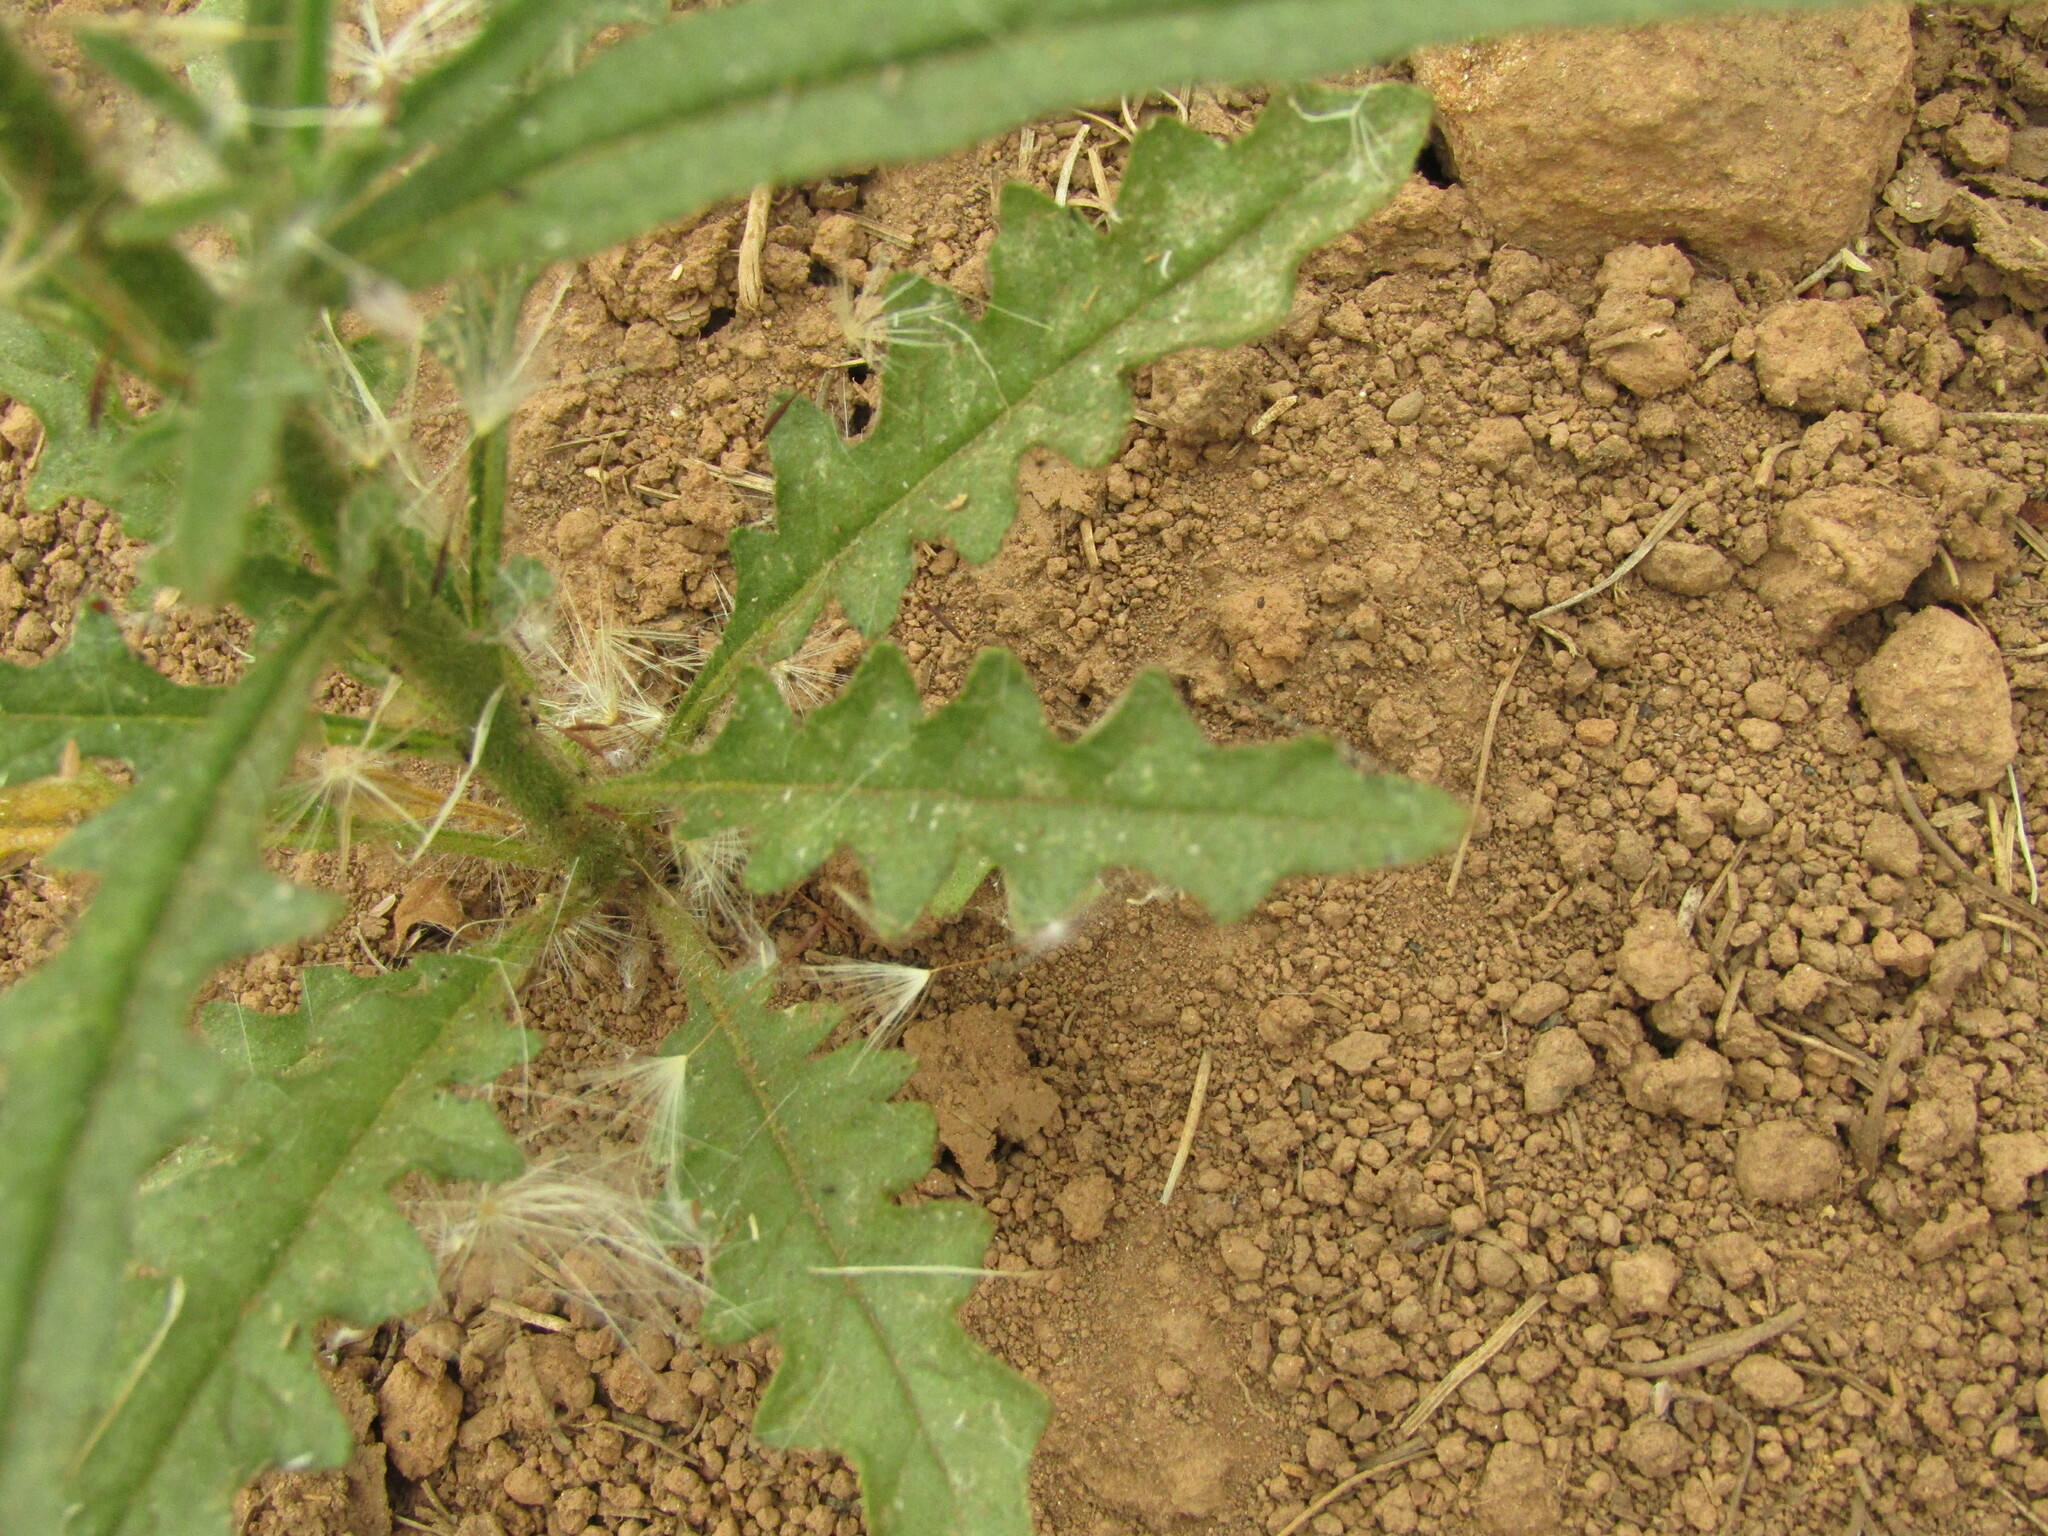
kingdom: Plantae
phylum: Tracheophyta
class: Magnoliopsida
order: Solanales
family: Solanaceae
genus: Salpiglossis
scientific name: Salpiglossis sinuata
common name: Painted-tongue
